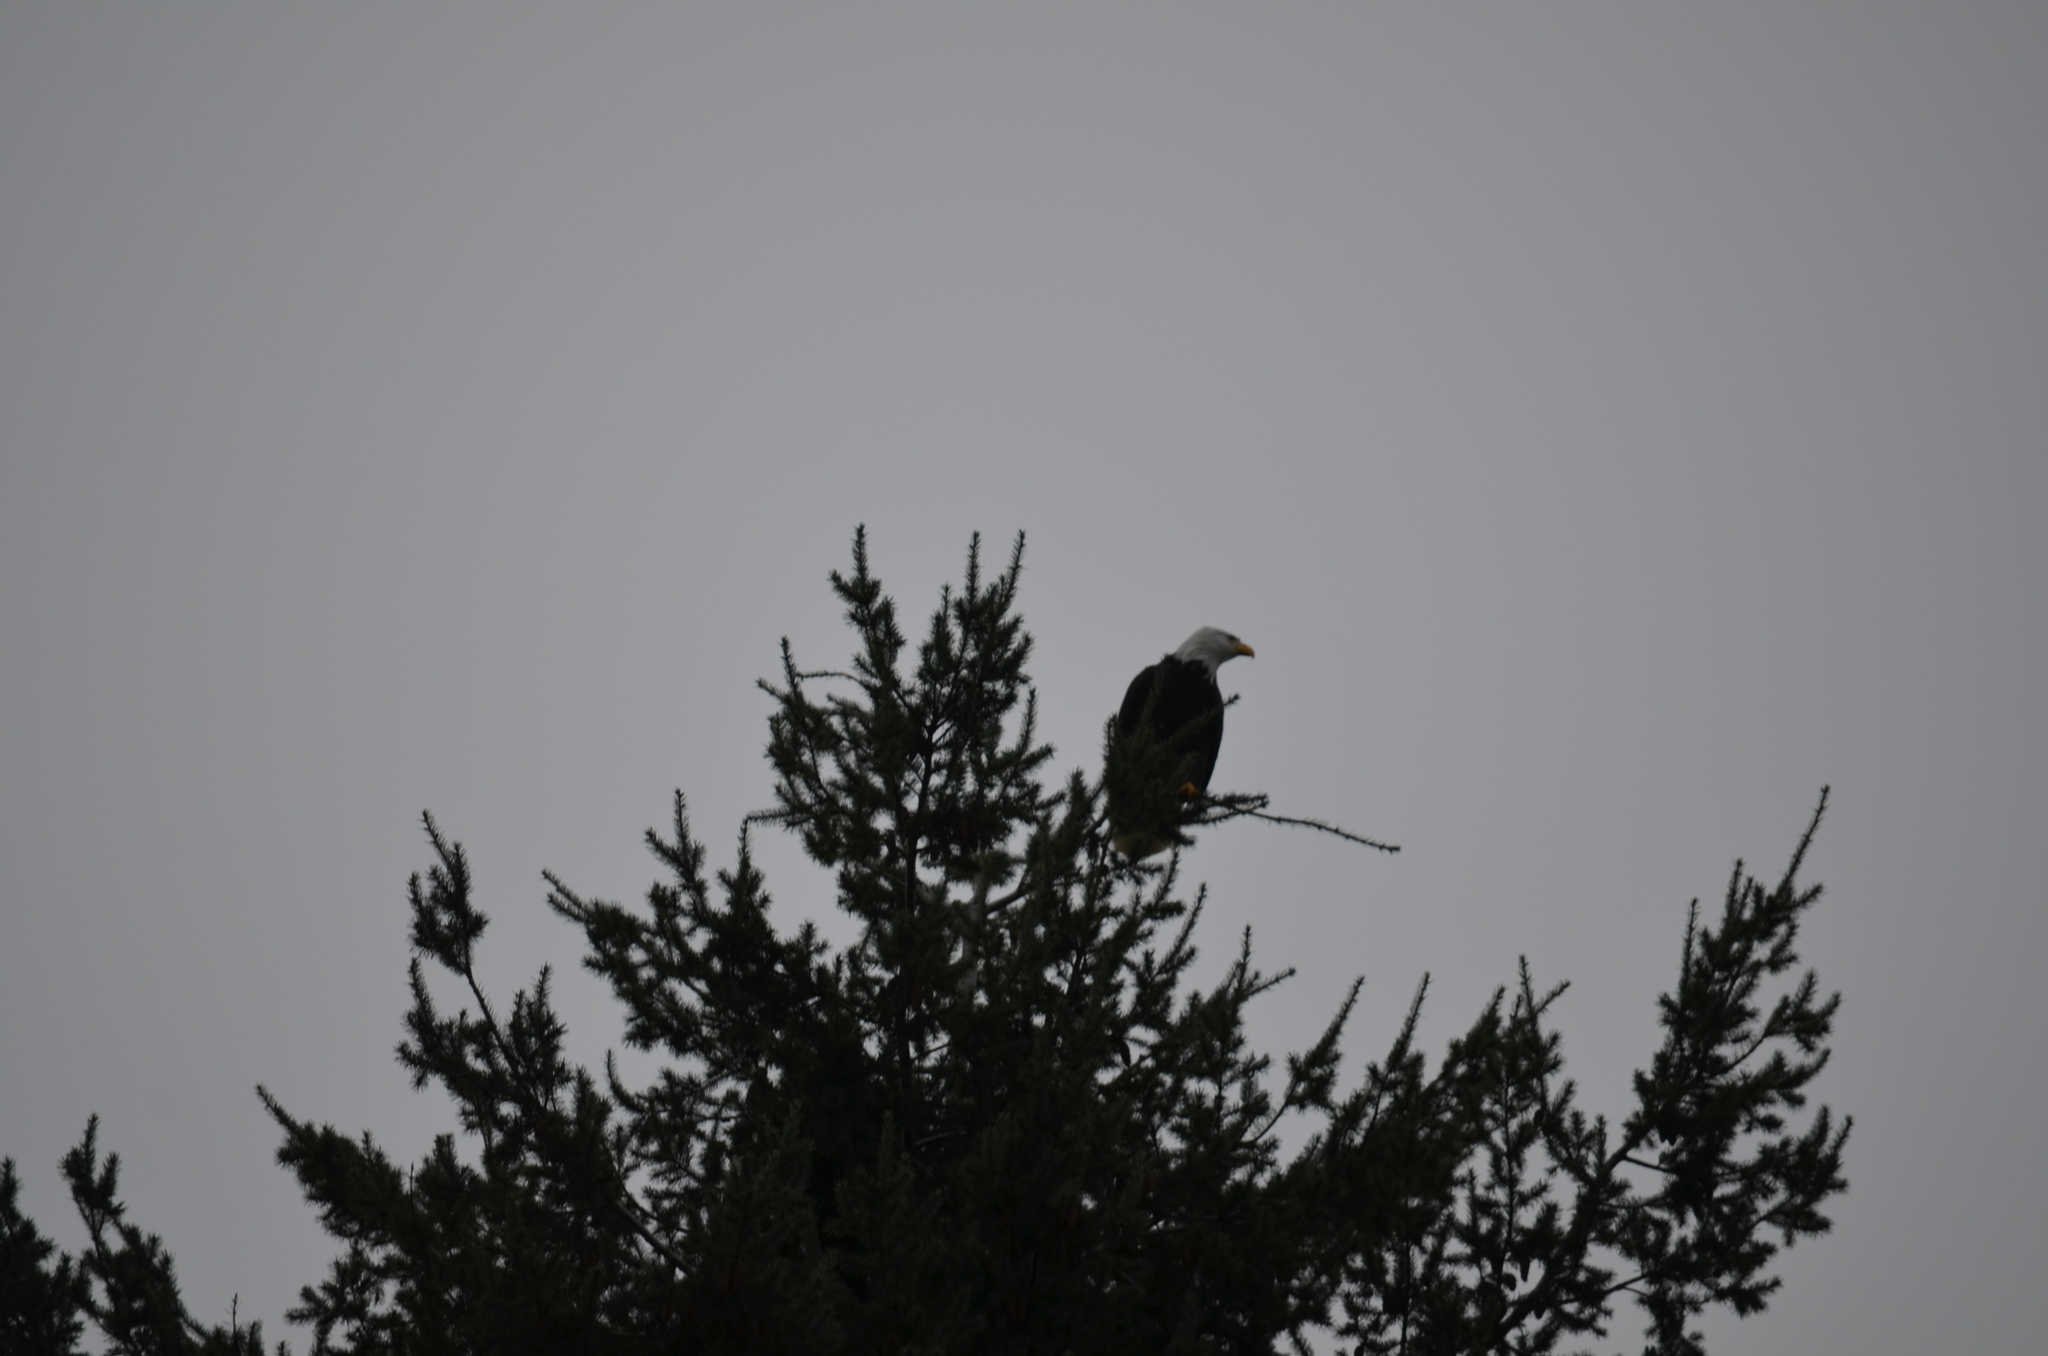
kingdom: Animalia
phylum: Chordata
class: Aves
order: Accipitriformes
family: Accipitridae
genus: Haliaeetus
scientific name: Haliaeetus leucocephalus
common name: Bald eagle
